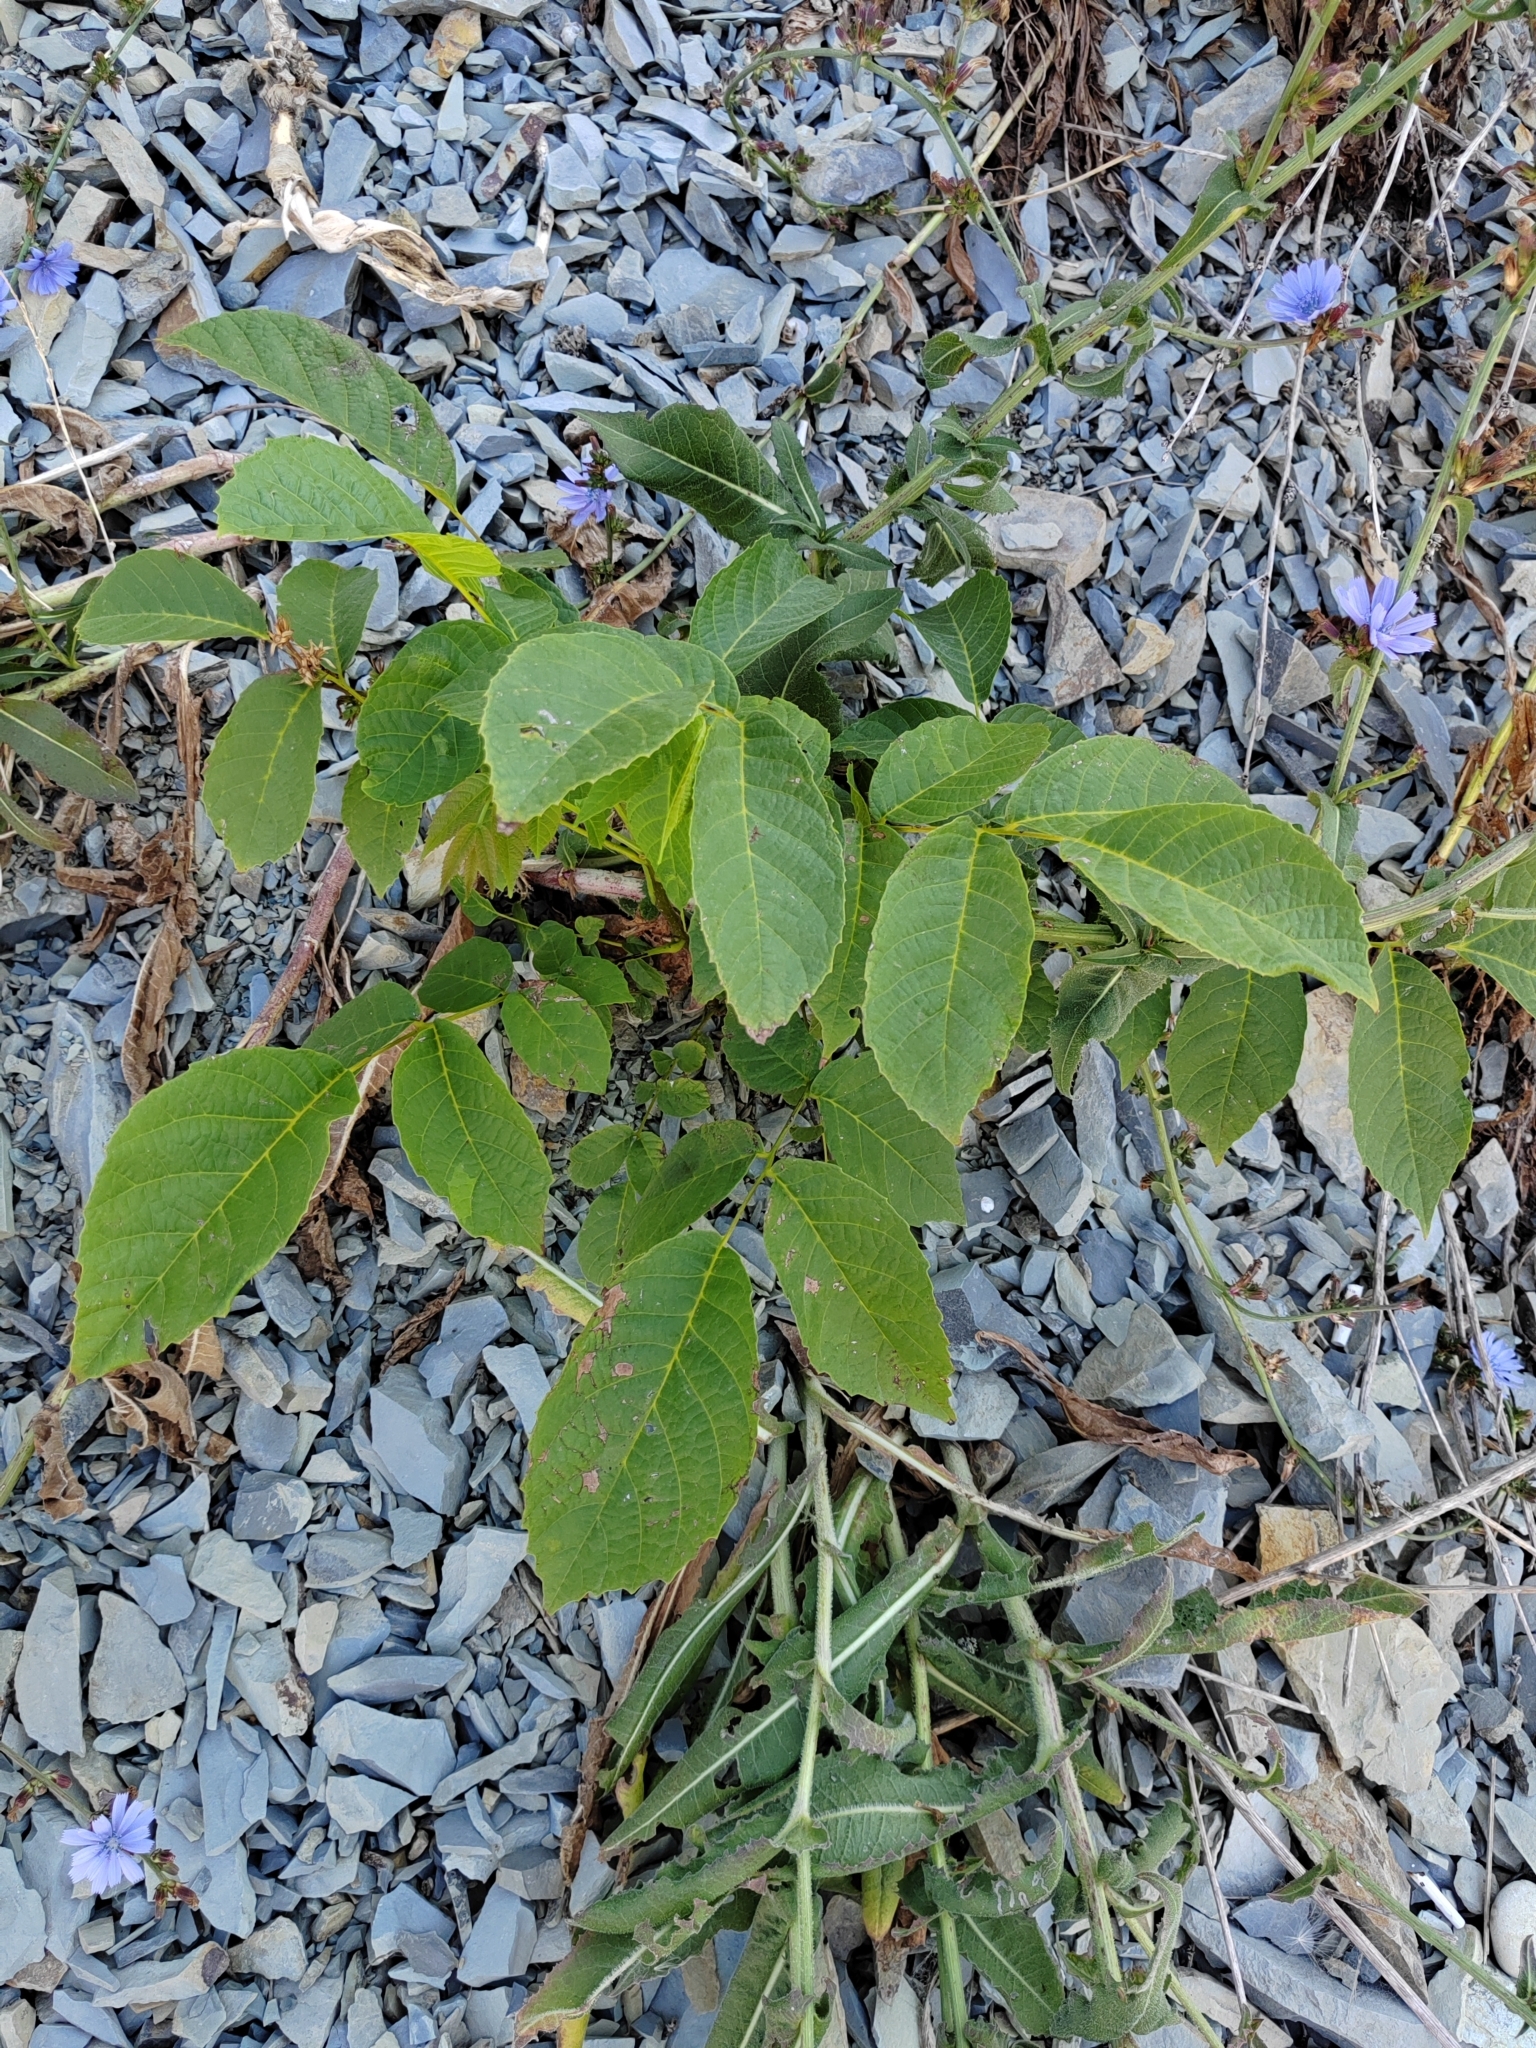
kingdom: Plantae
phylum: Tracheophyta
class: Magnoliopsida
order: Fagales
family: Juglandaceae
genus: Juglans
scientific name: Juglans regia
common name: Walnut
